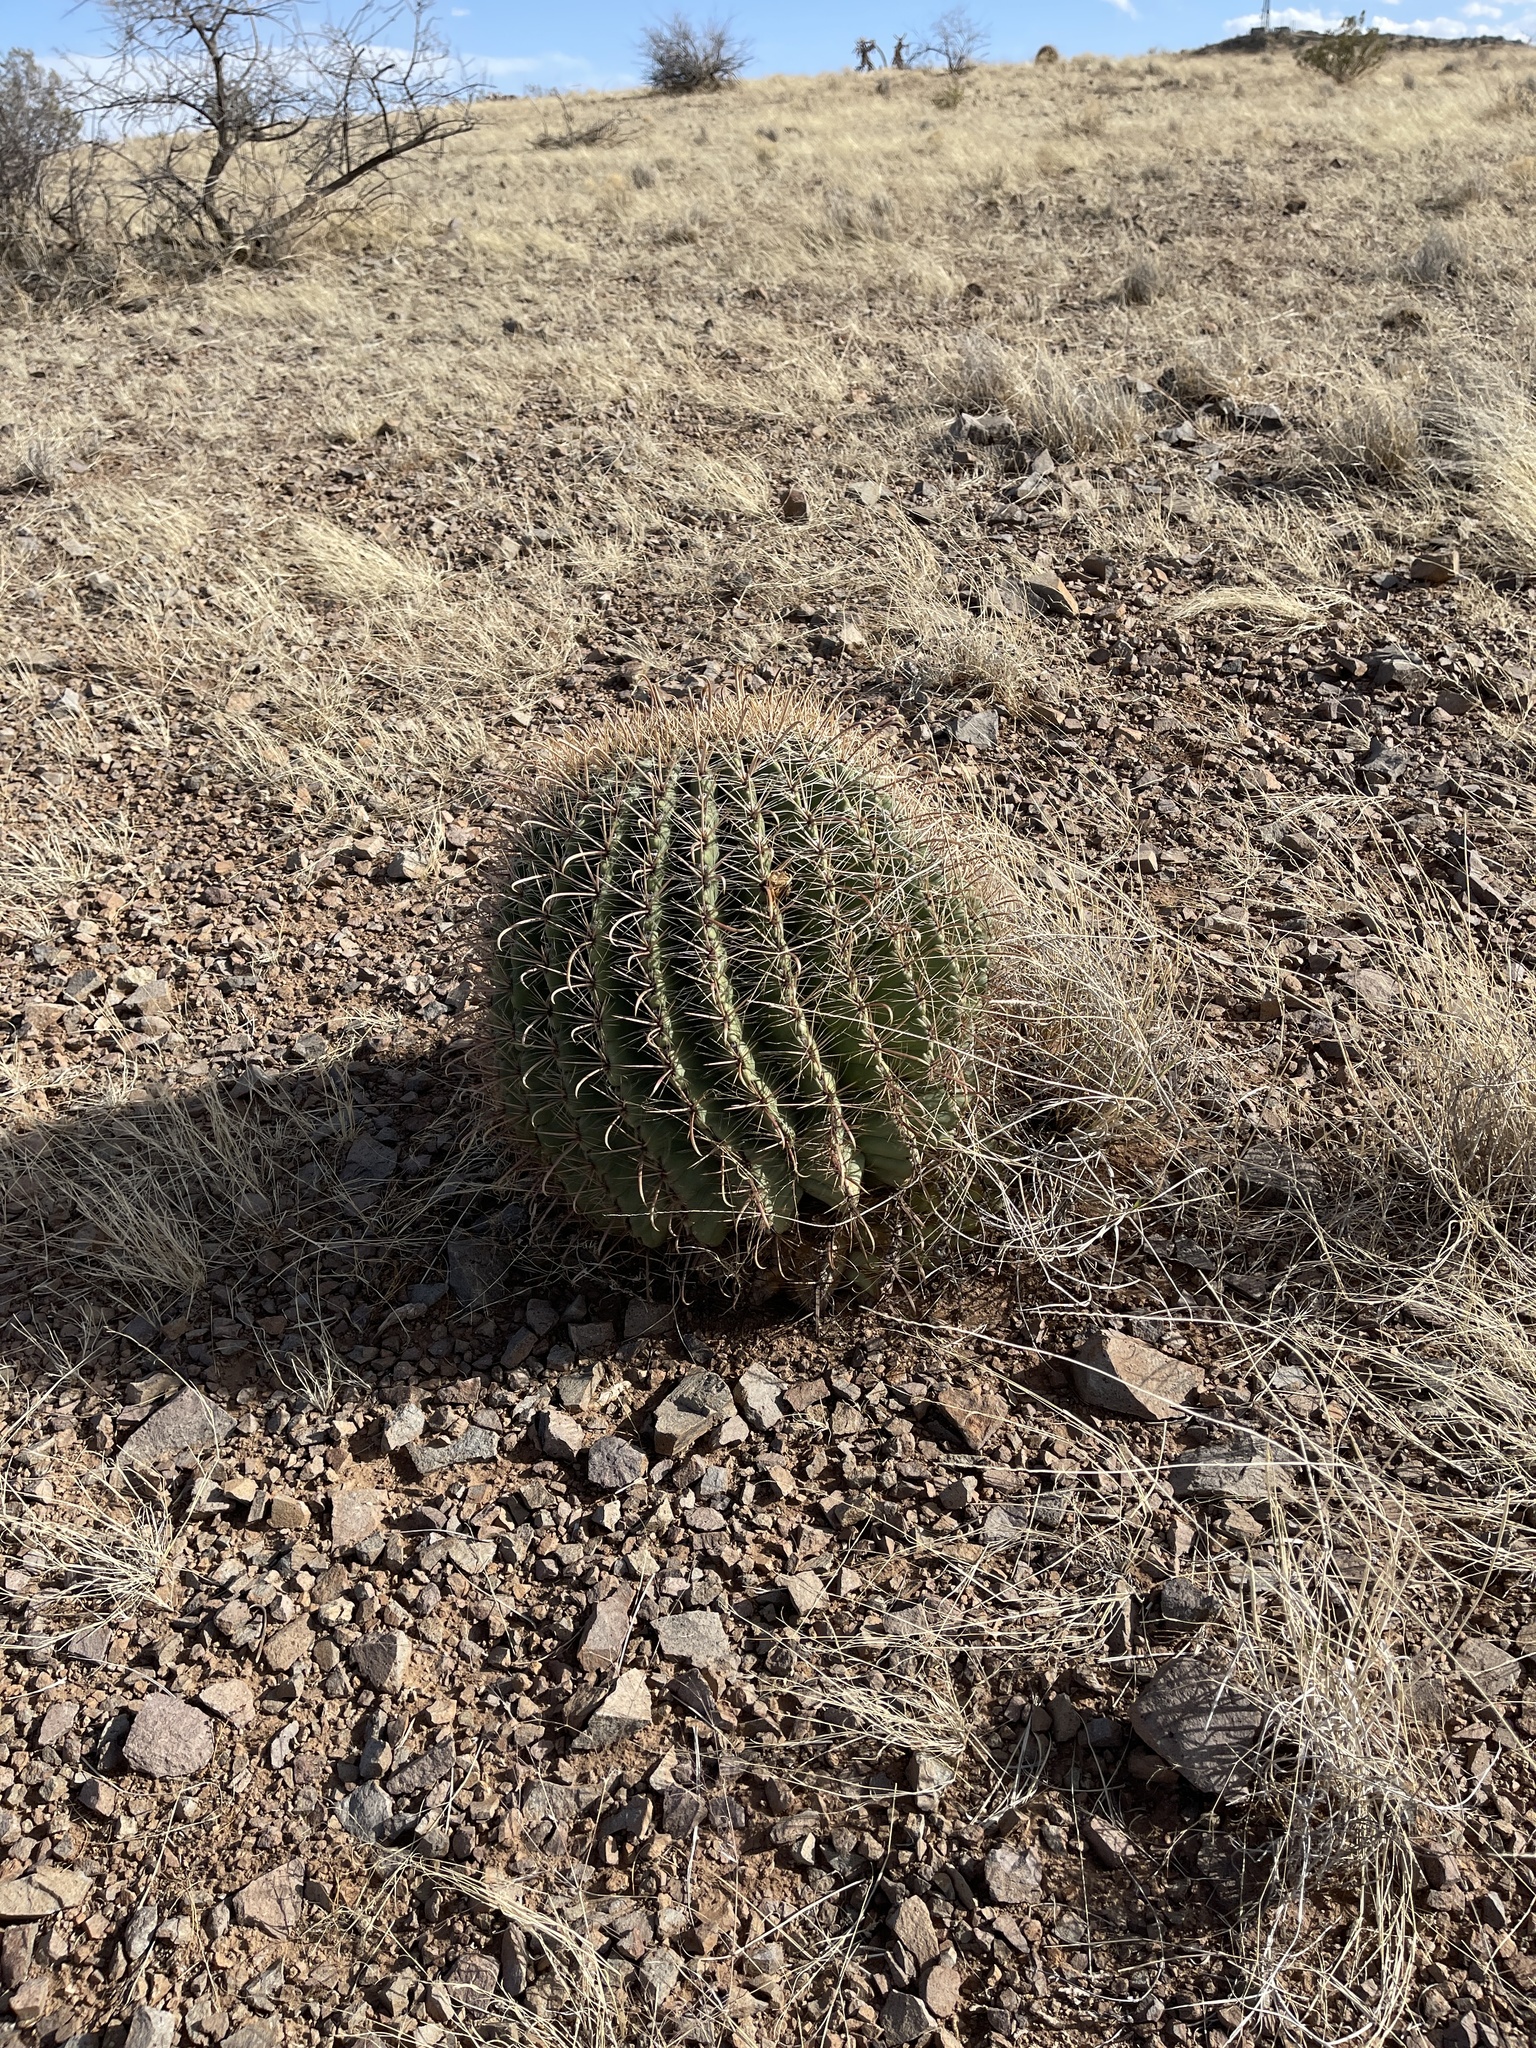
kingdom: Plantae
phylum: Tracheophyta
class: Magnoliopsida
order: Caryophyllales
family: Cactaceae
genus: Ferocactus
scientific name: Ferocactus wislizeni
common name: Candy barrel cactus
